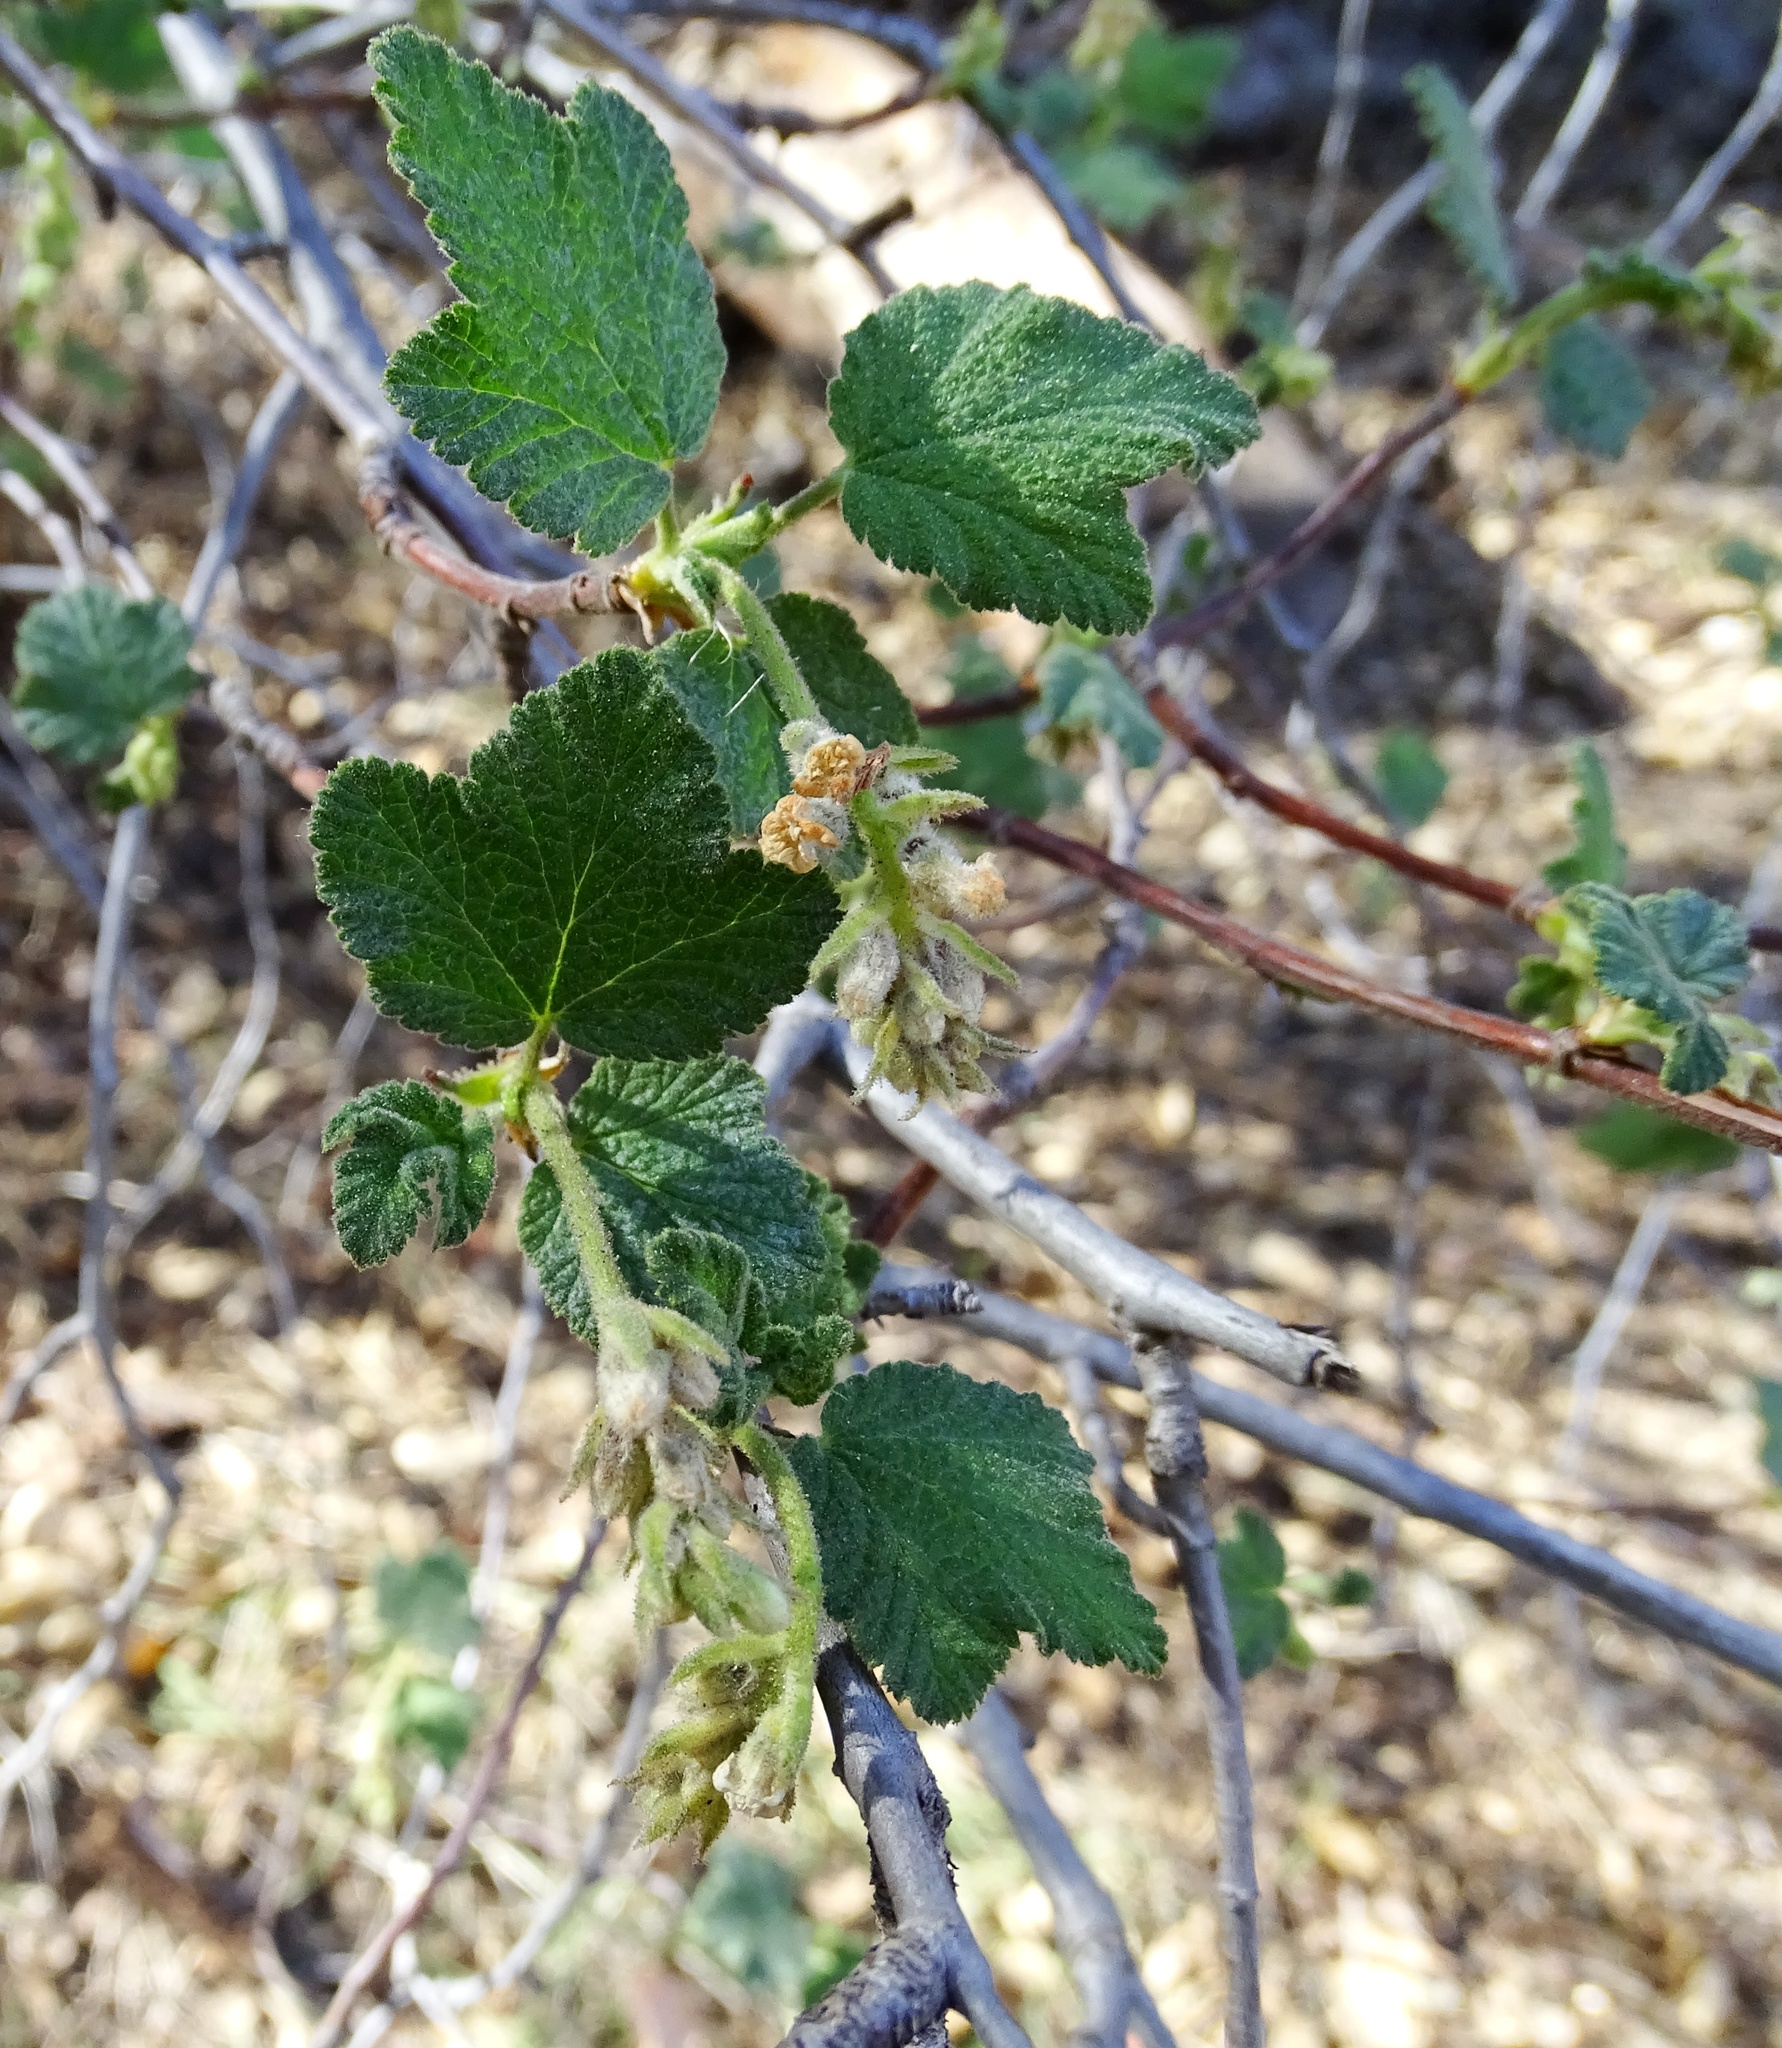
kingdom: Plantae
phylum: Tracheophyta
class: Magnoliopsida
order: Saxifragales
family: Grossulariaceae
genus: Ribes
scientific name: Ribes indecorum
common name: White-flower currant
